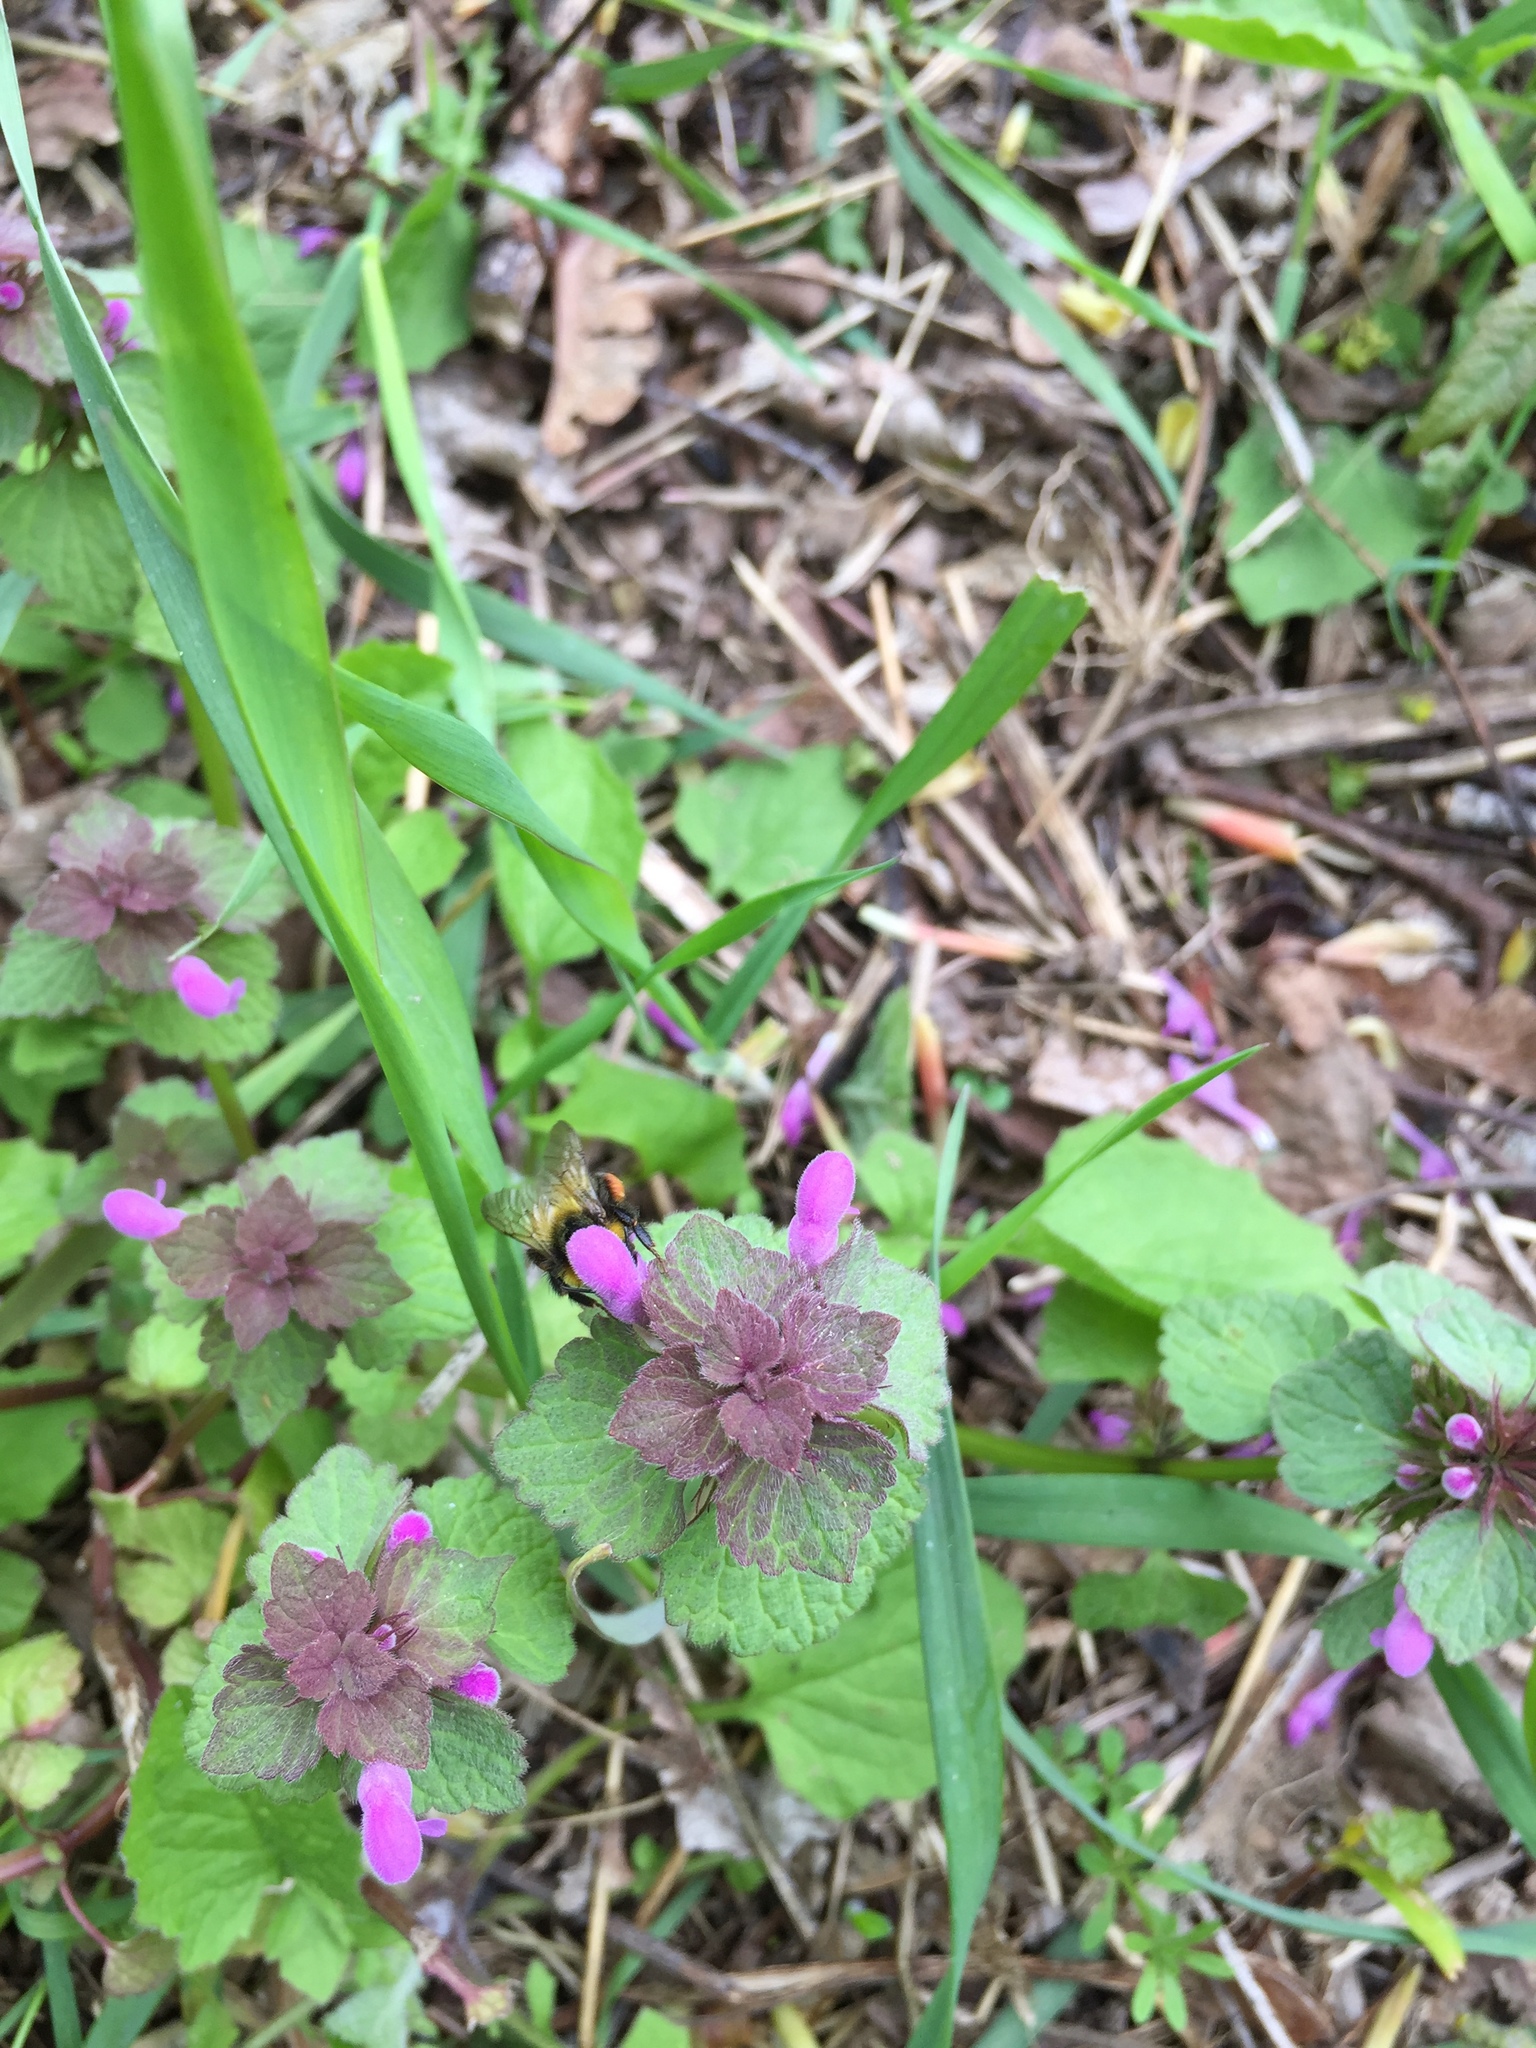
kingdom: Plantae
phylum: Tracheophyta
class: Magnoliopsida
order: Lamiales
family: Lamiaceae
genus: Lamium
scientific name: Lamium purpureum
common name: Red dead-nettle
